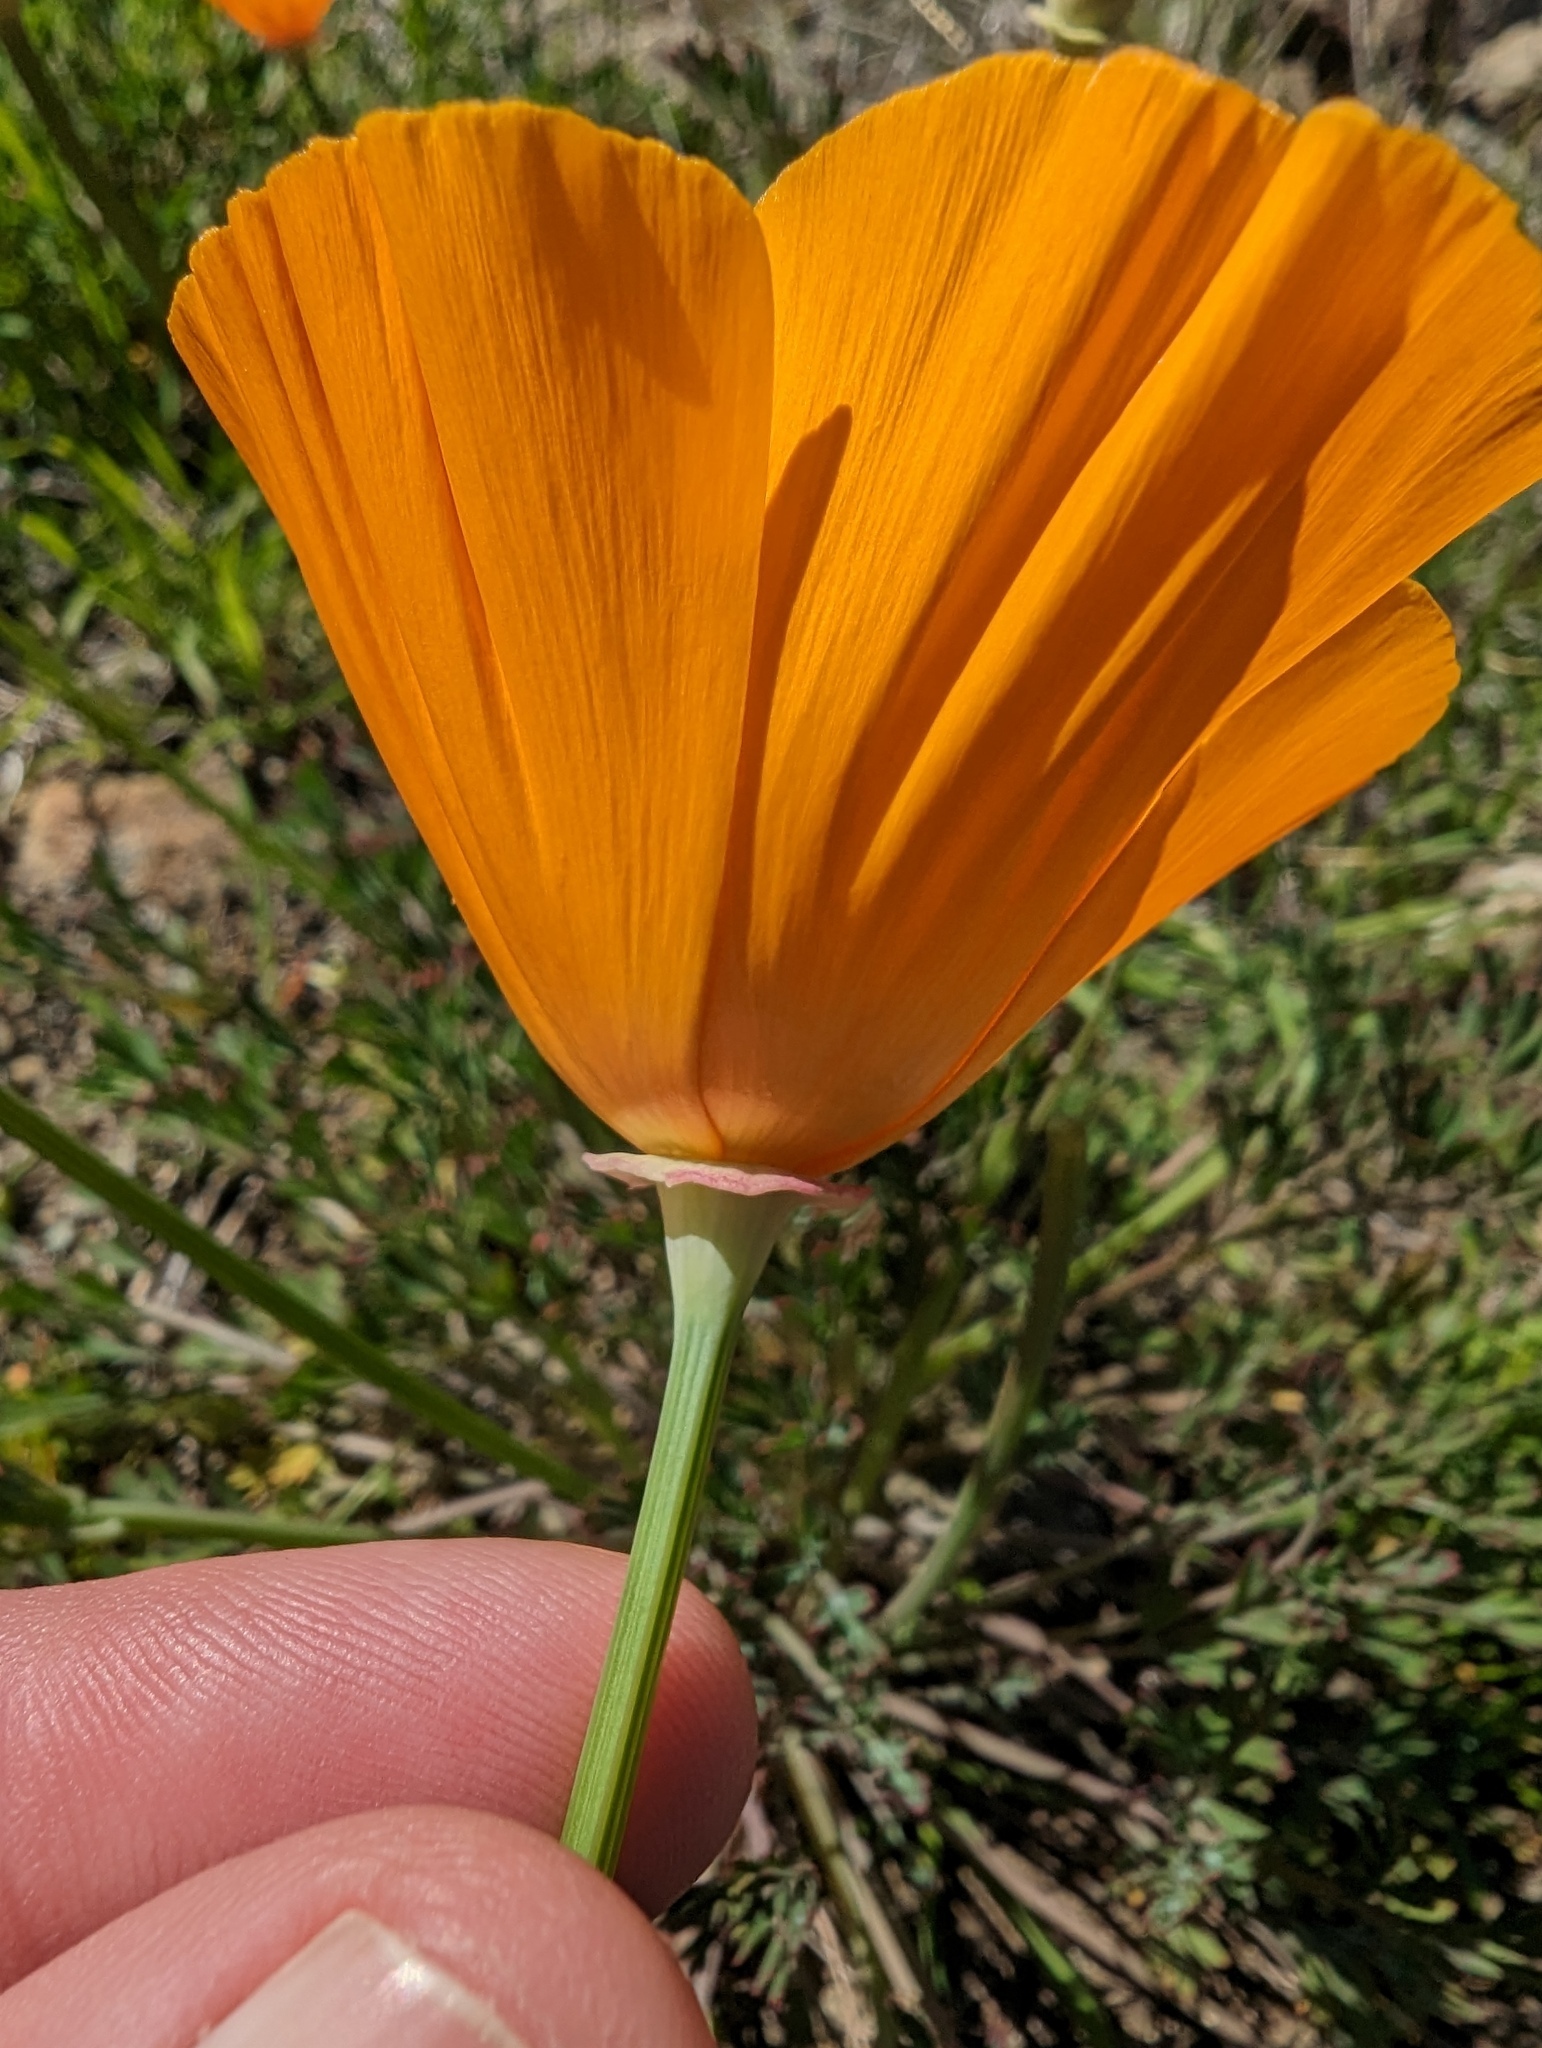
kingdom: Plantae
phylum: Tracheophyta
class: Magnoliopsida
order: Ranunculales
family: Papaveraceae
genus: Eschscholzia
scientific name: Eschscholzia californica
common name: California poppy
